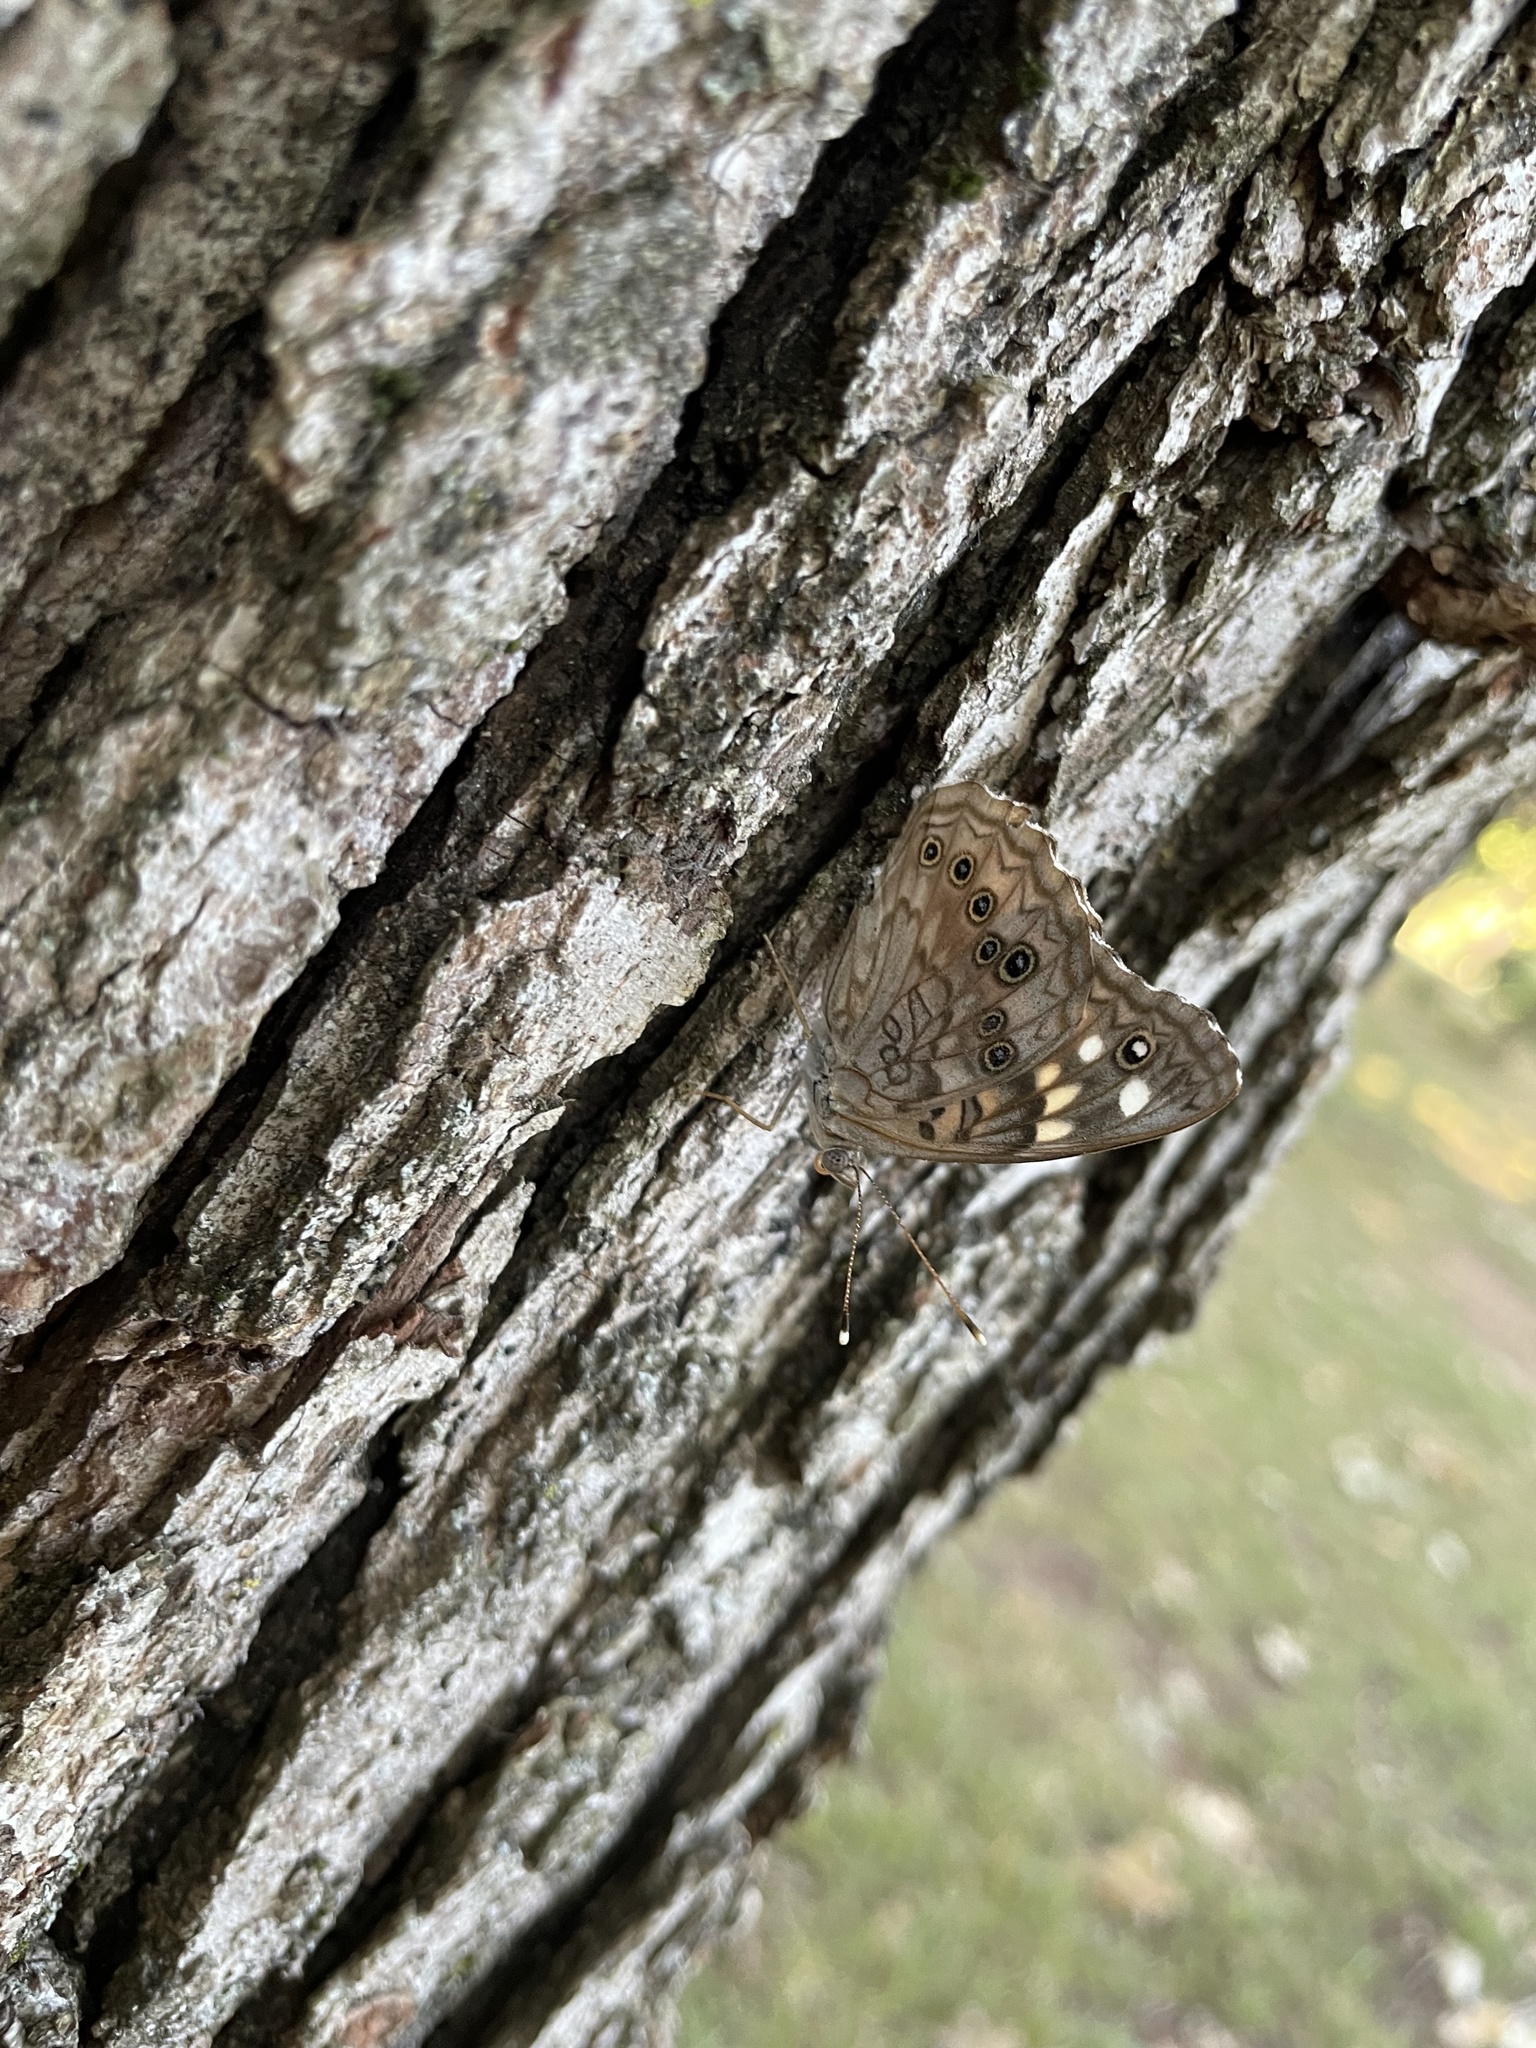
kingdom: Animalia
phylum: Arthropoda
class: Insecta
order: Lepidoptera
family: Nymphalidae
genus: Asterocampa
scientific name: Asterocampa celtis
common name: Hackberry emperor
